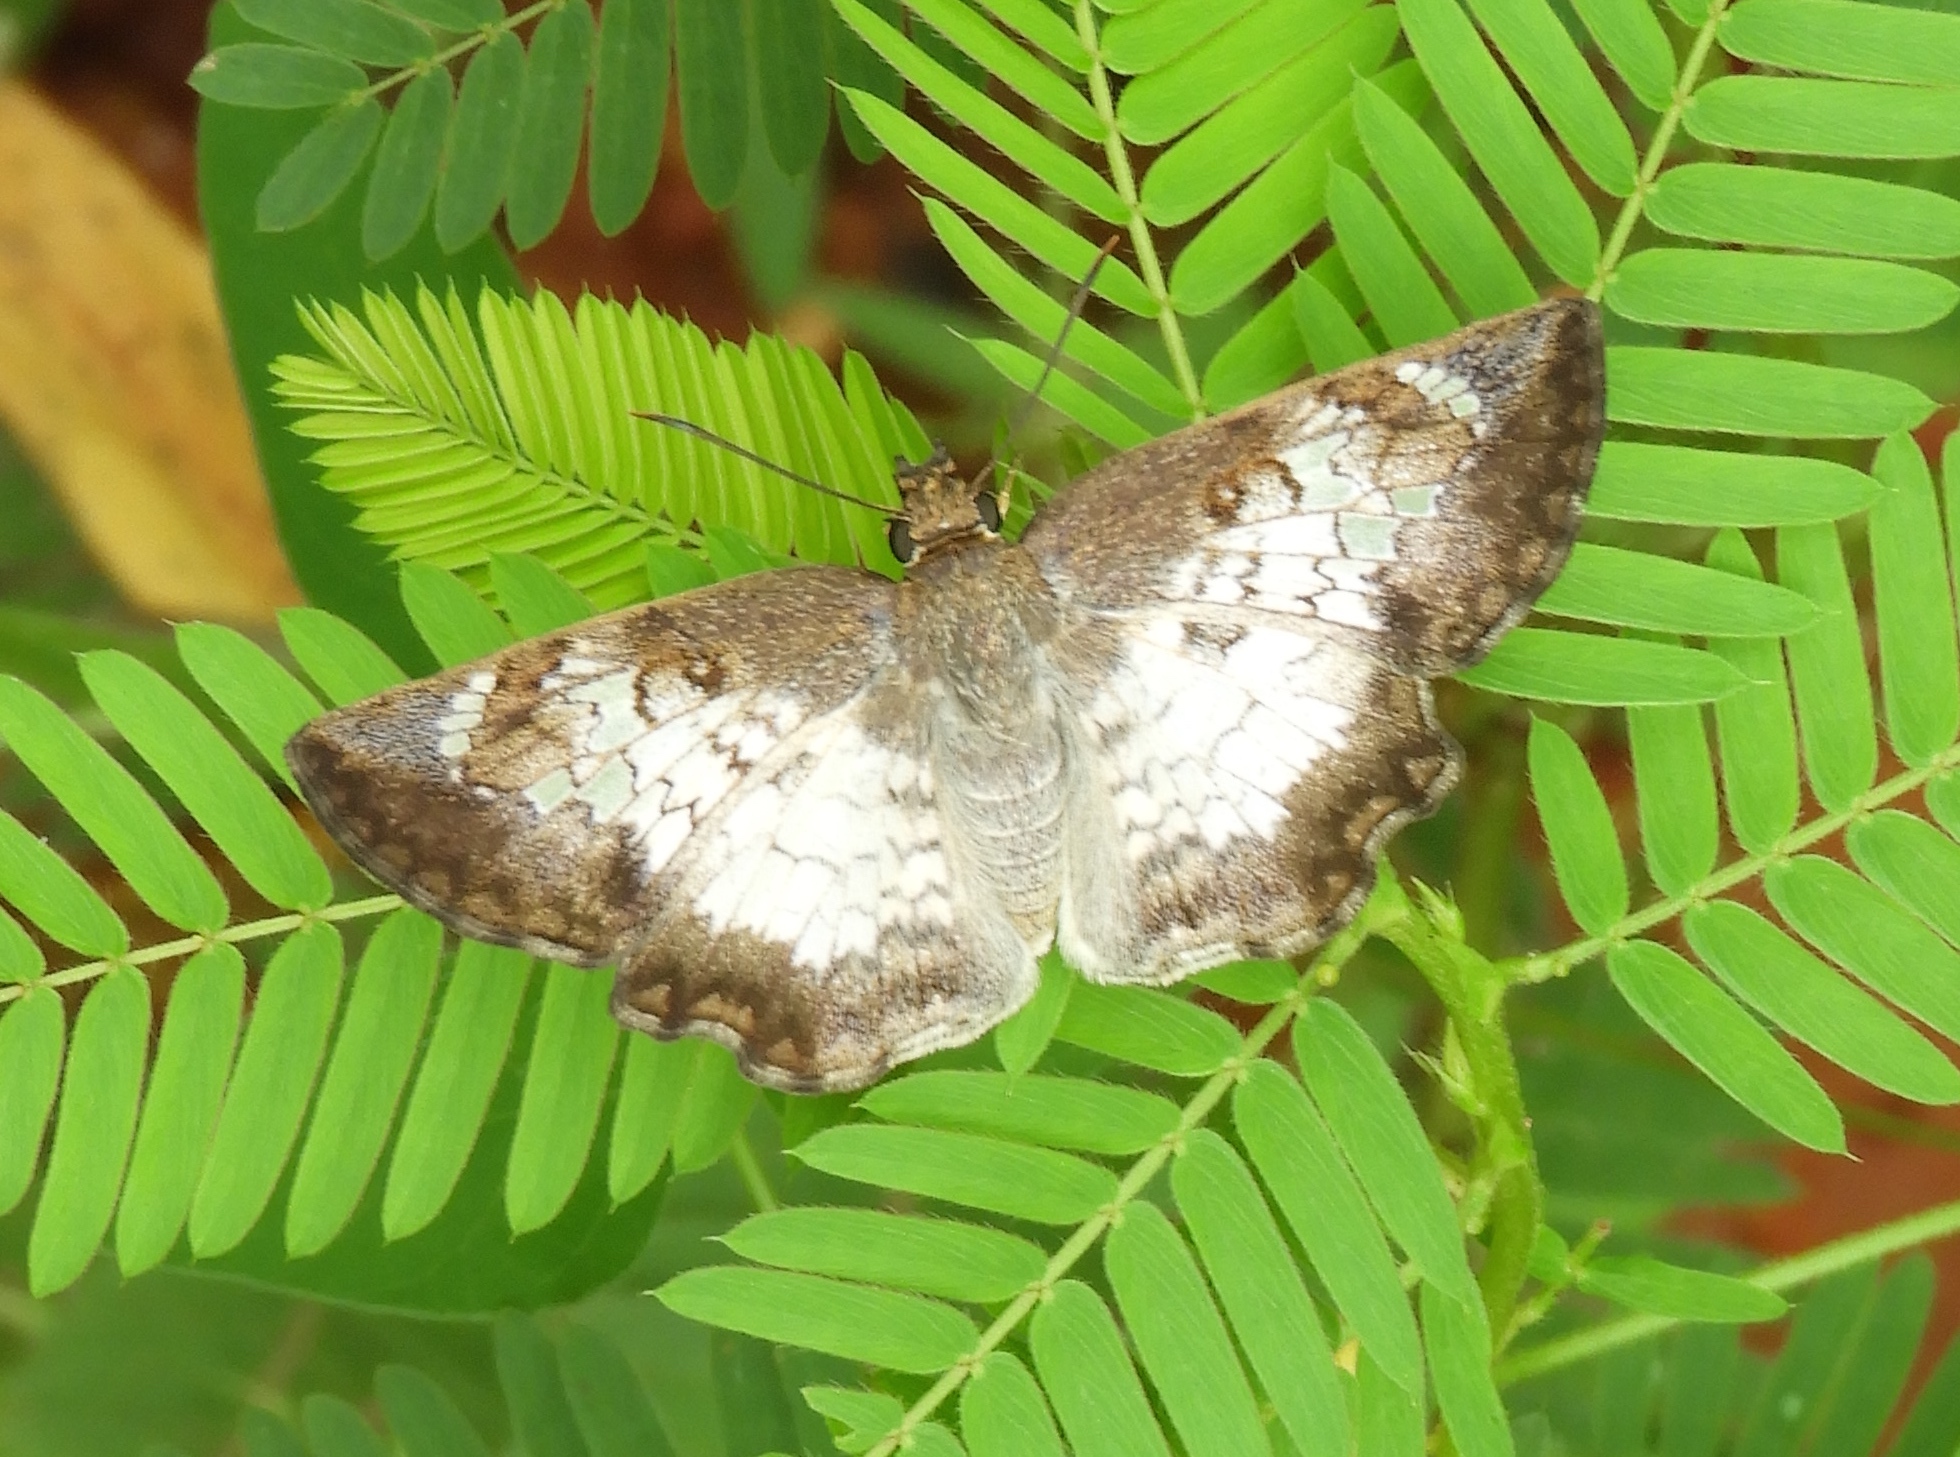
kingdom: Animalia
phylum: Arthropoda
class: Insecta
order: Lepidoptera
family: Hesperiidae
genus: Antigonus
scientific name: Antigonus emorsa
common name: White spurwing
